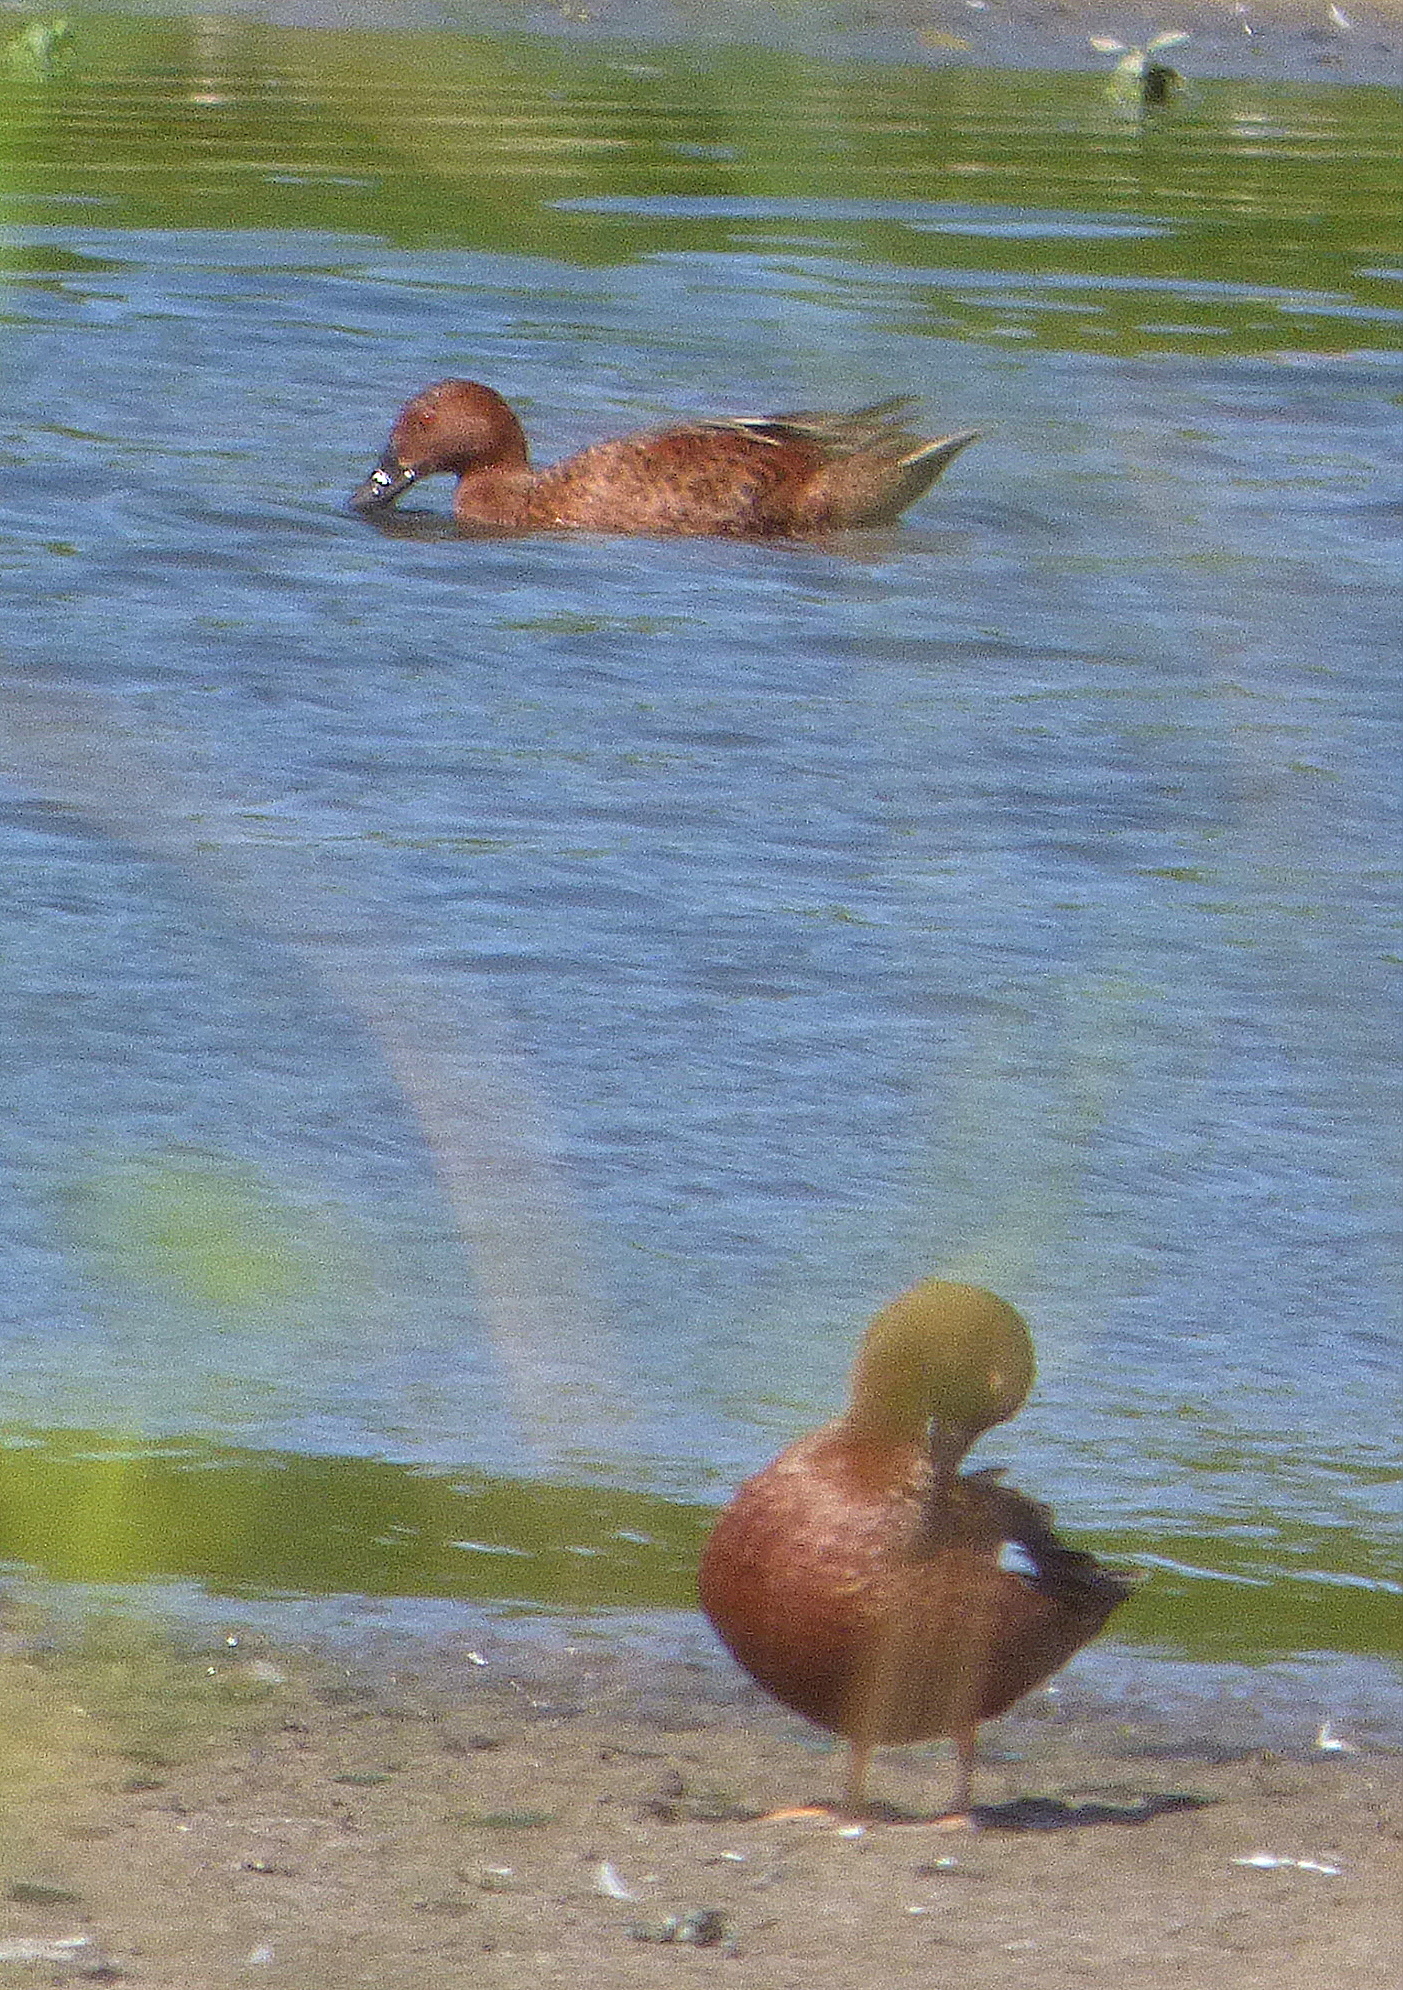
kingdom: Animalia
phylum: Chordata
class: Aves
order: Anseriformes
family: Anatidae
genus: Spatula
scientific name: Spatula cyanoptera
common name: Cinnamon teal
